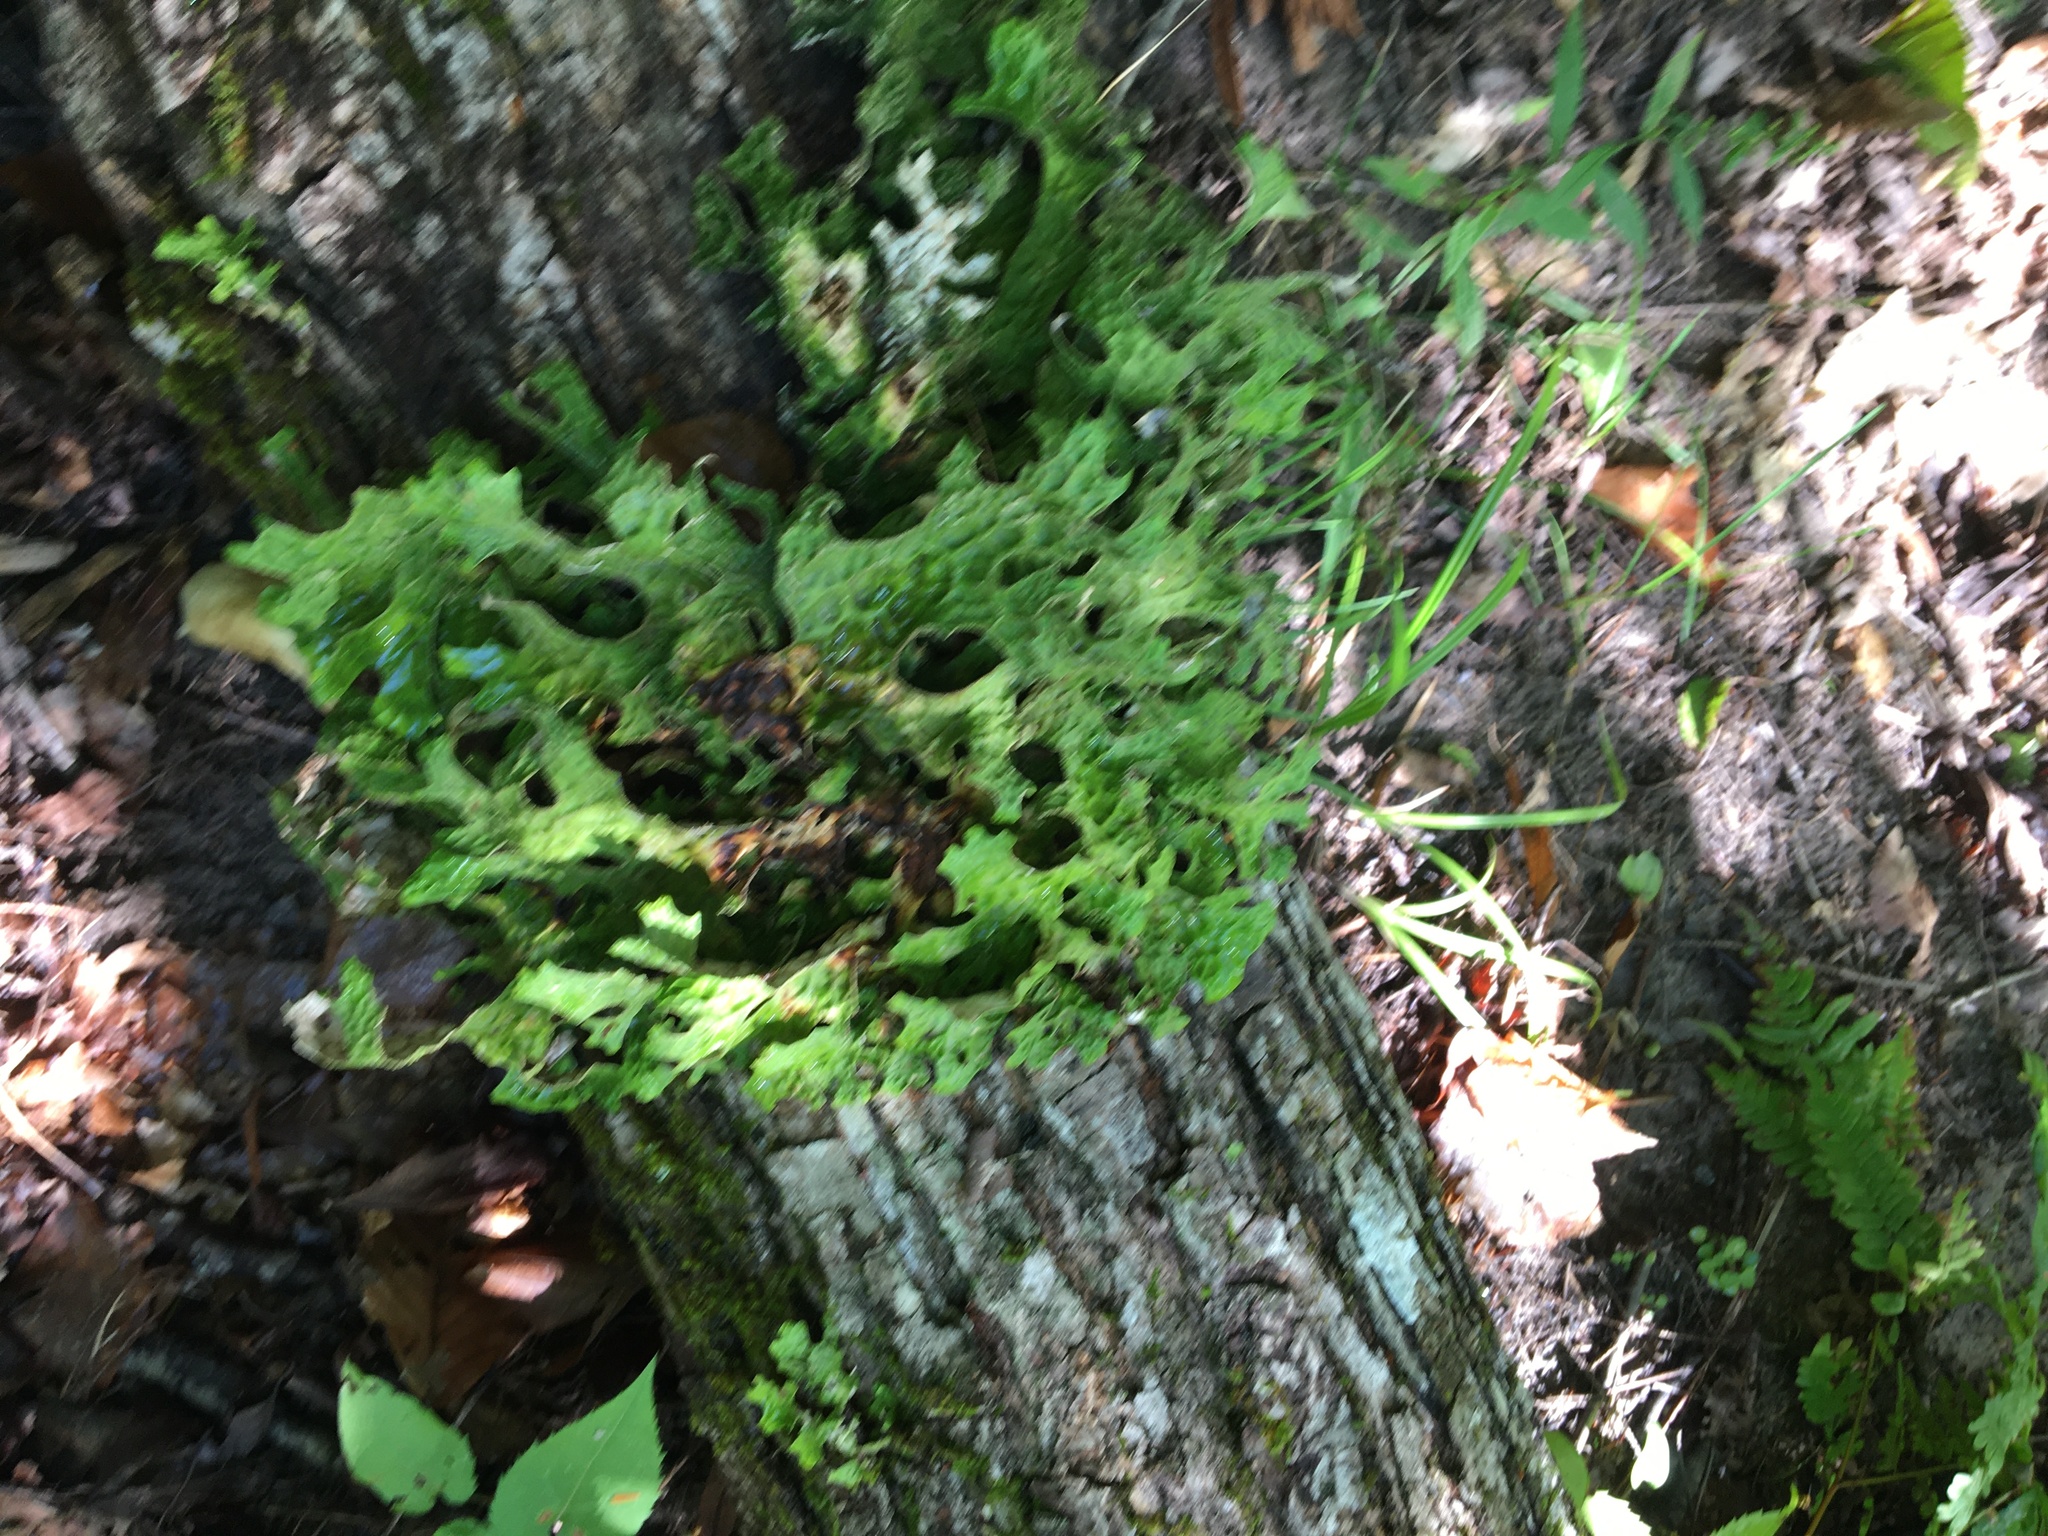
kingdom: Fungi
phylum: Ascomycota
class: Lecanoromycetes
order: Peltigerales
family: Lobariaceae
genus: Lobaria
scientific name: Lobaria pulmonaria
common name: Lungwort
